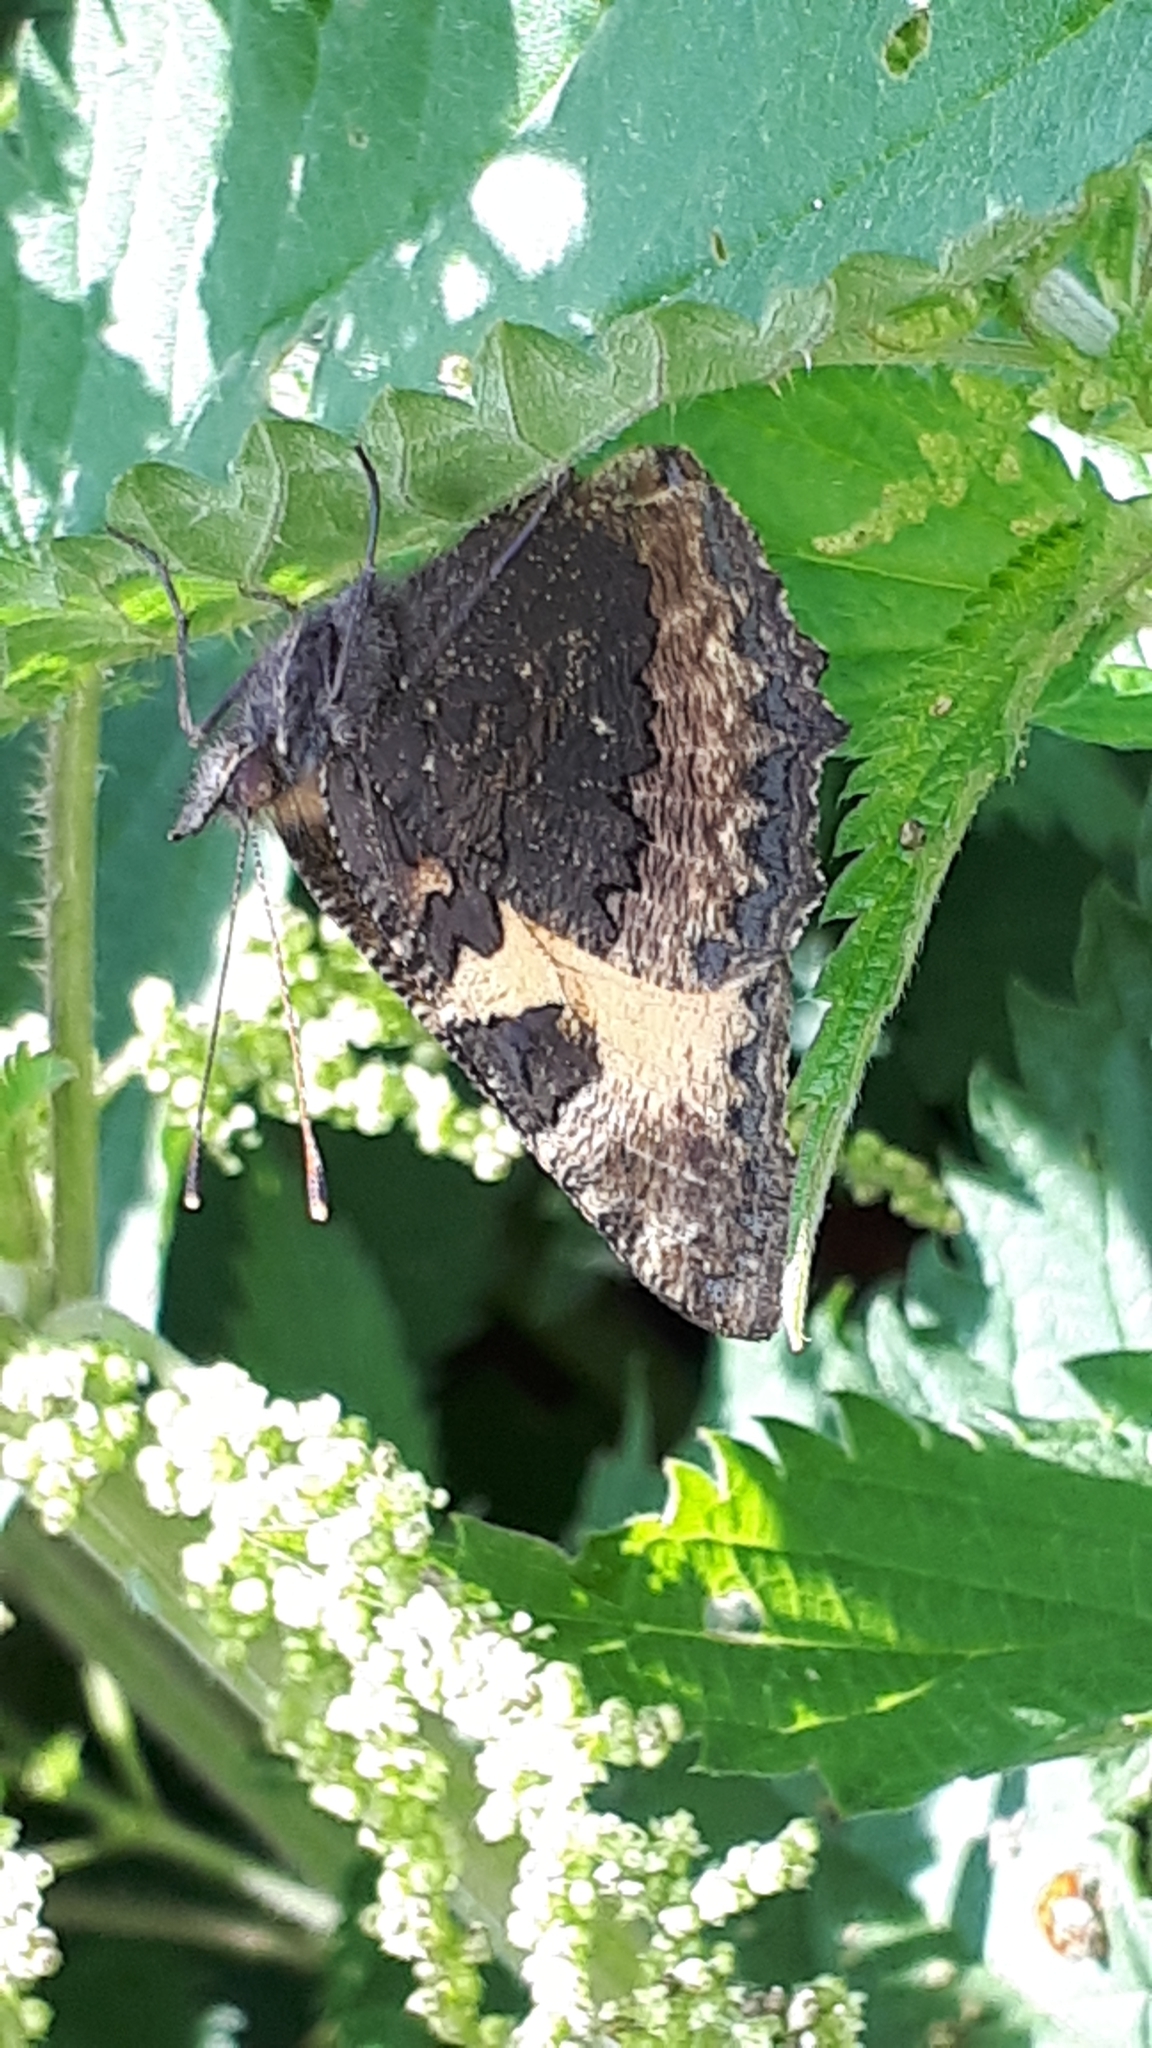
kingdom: Animalia
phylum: Arthropoda
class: Insecta
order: Lepidoptera
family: Nymphalidae
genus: Aglais
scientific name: Aglais urticae
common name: Small tortoiseshell
